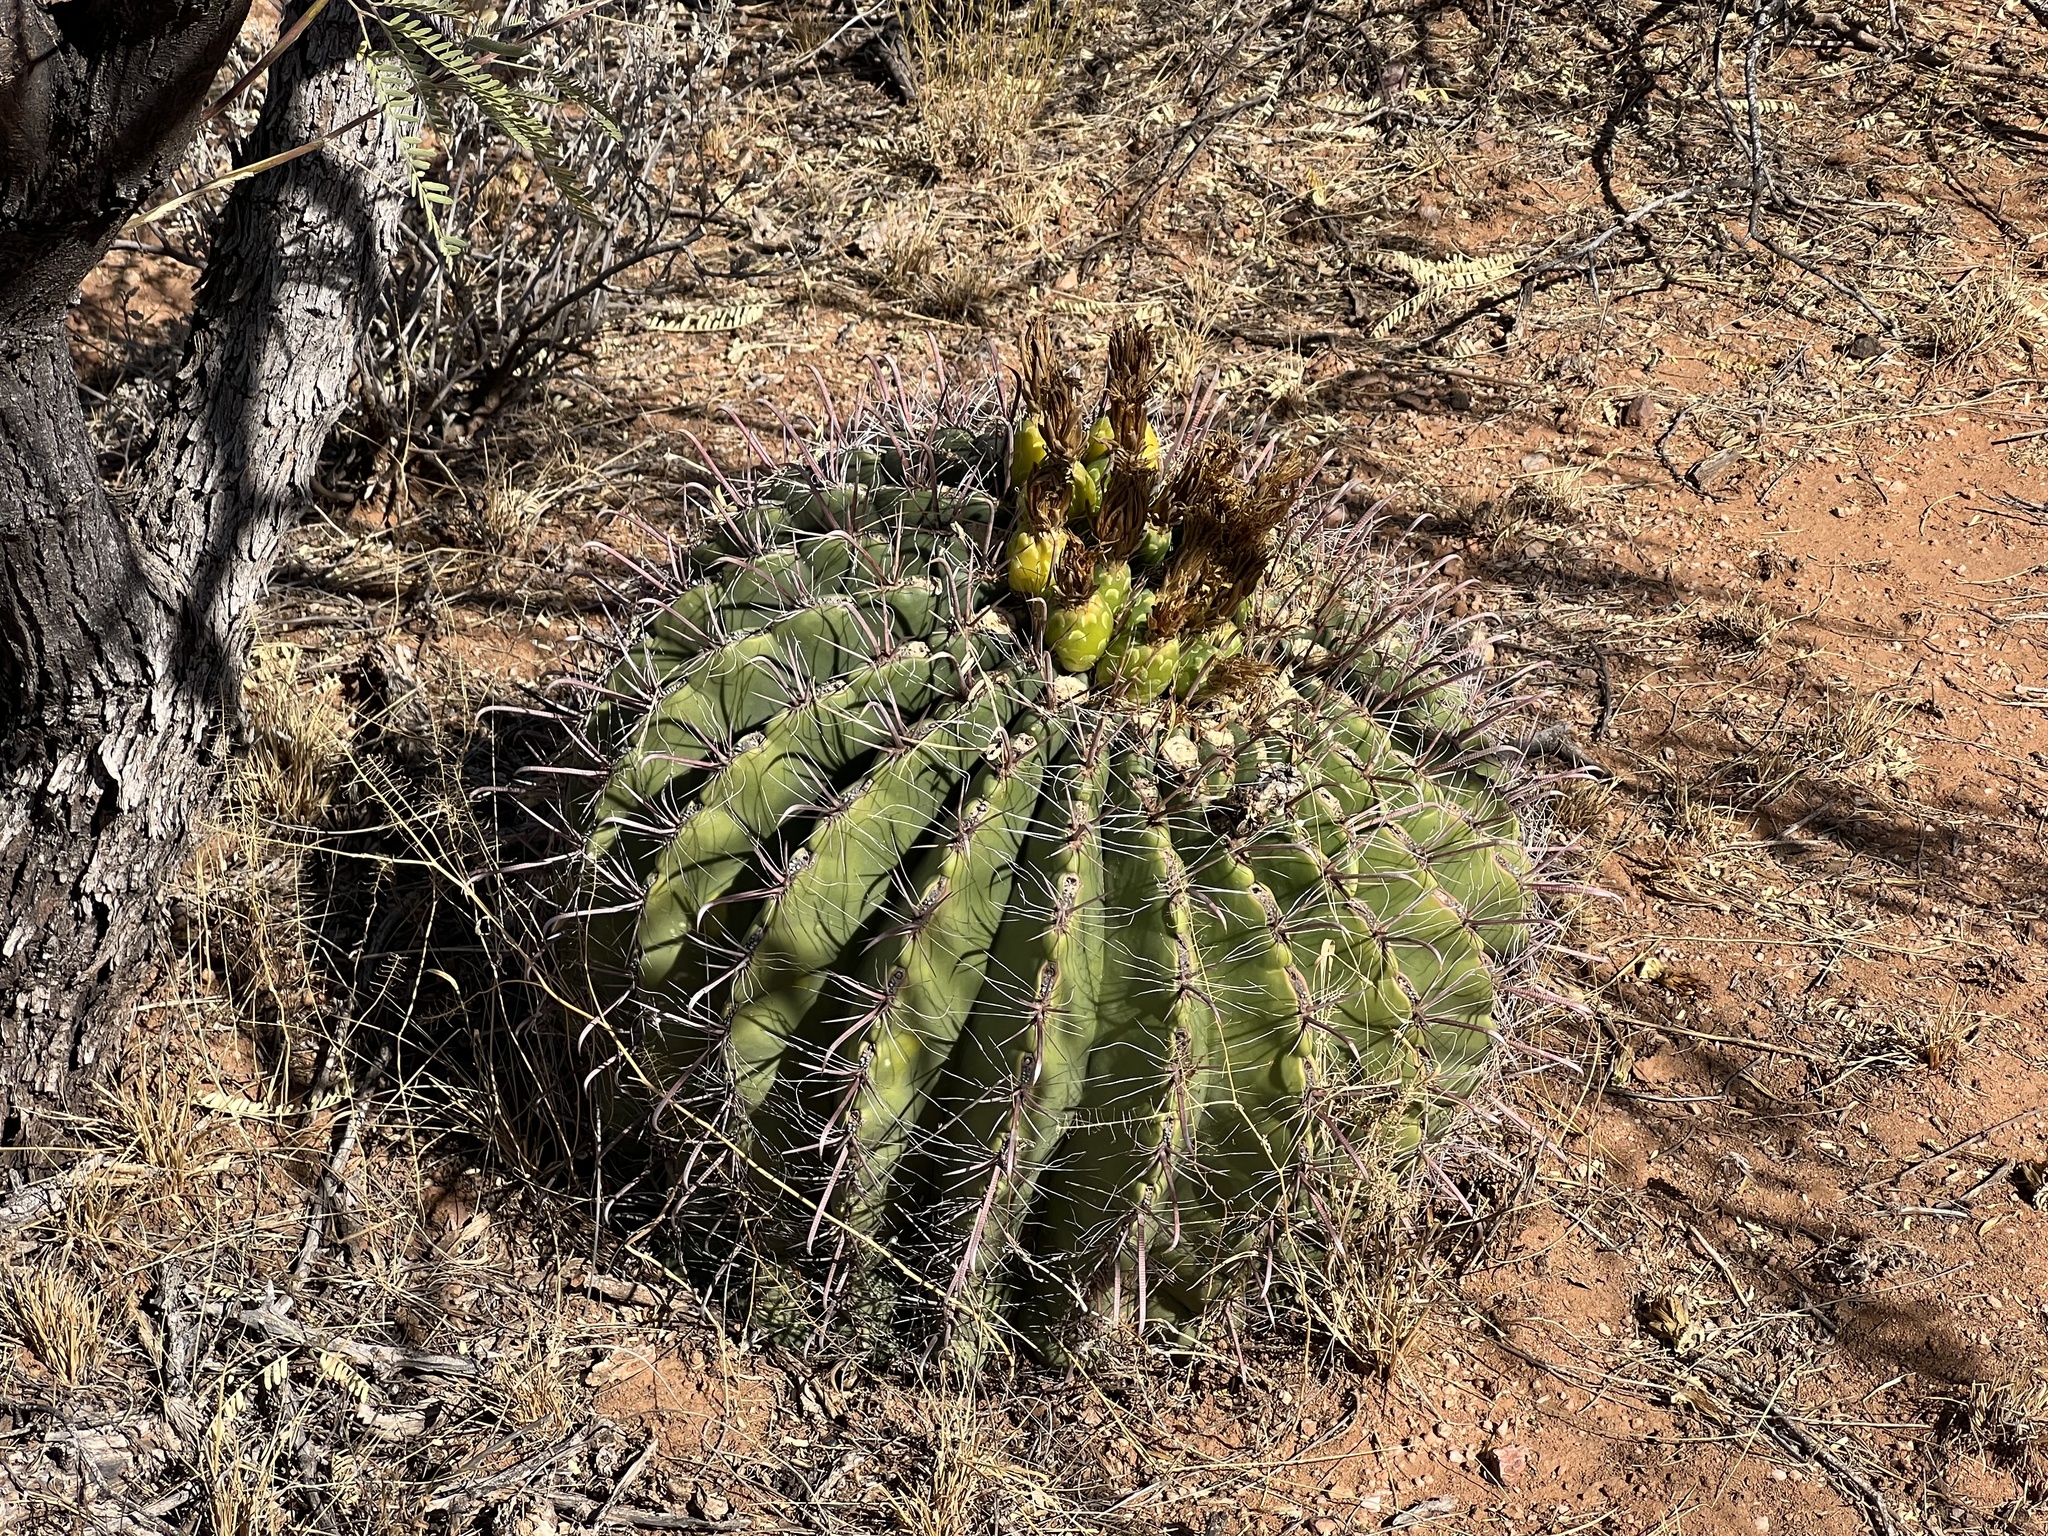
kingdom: Plantae
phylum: Tracheophyta
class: Magnoliopsida
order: Caryophyllales
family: Cactaceae
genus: Ferocactus
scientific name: Ferocactus wislizeni
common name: Candy barrel cactus
